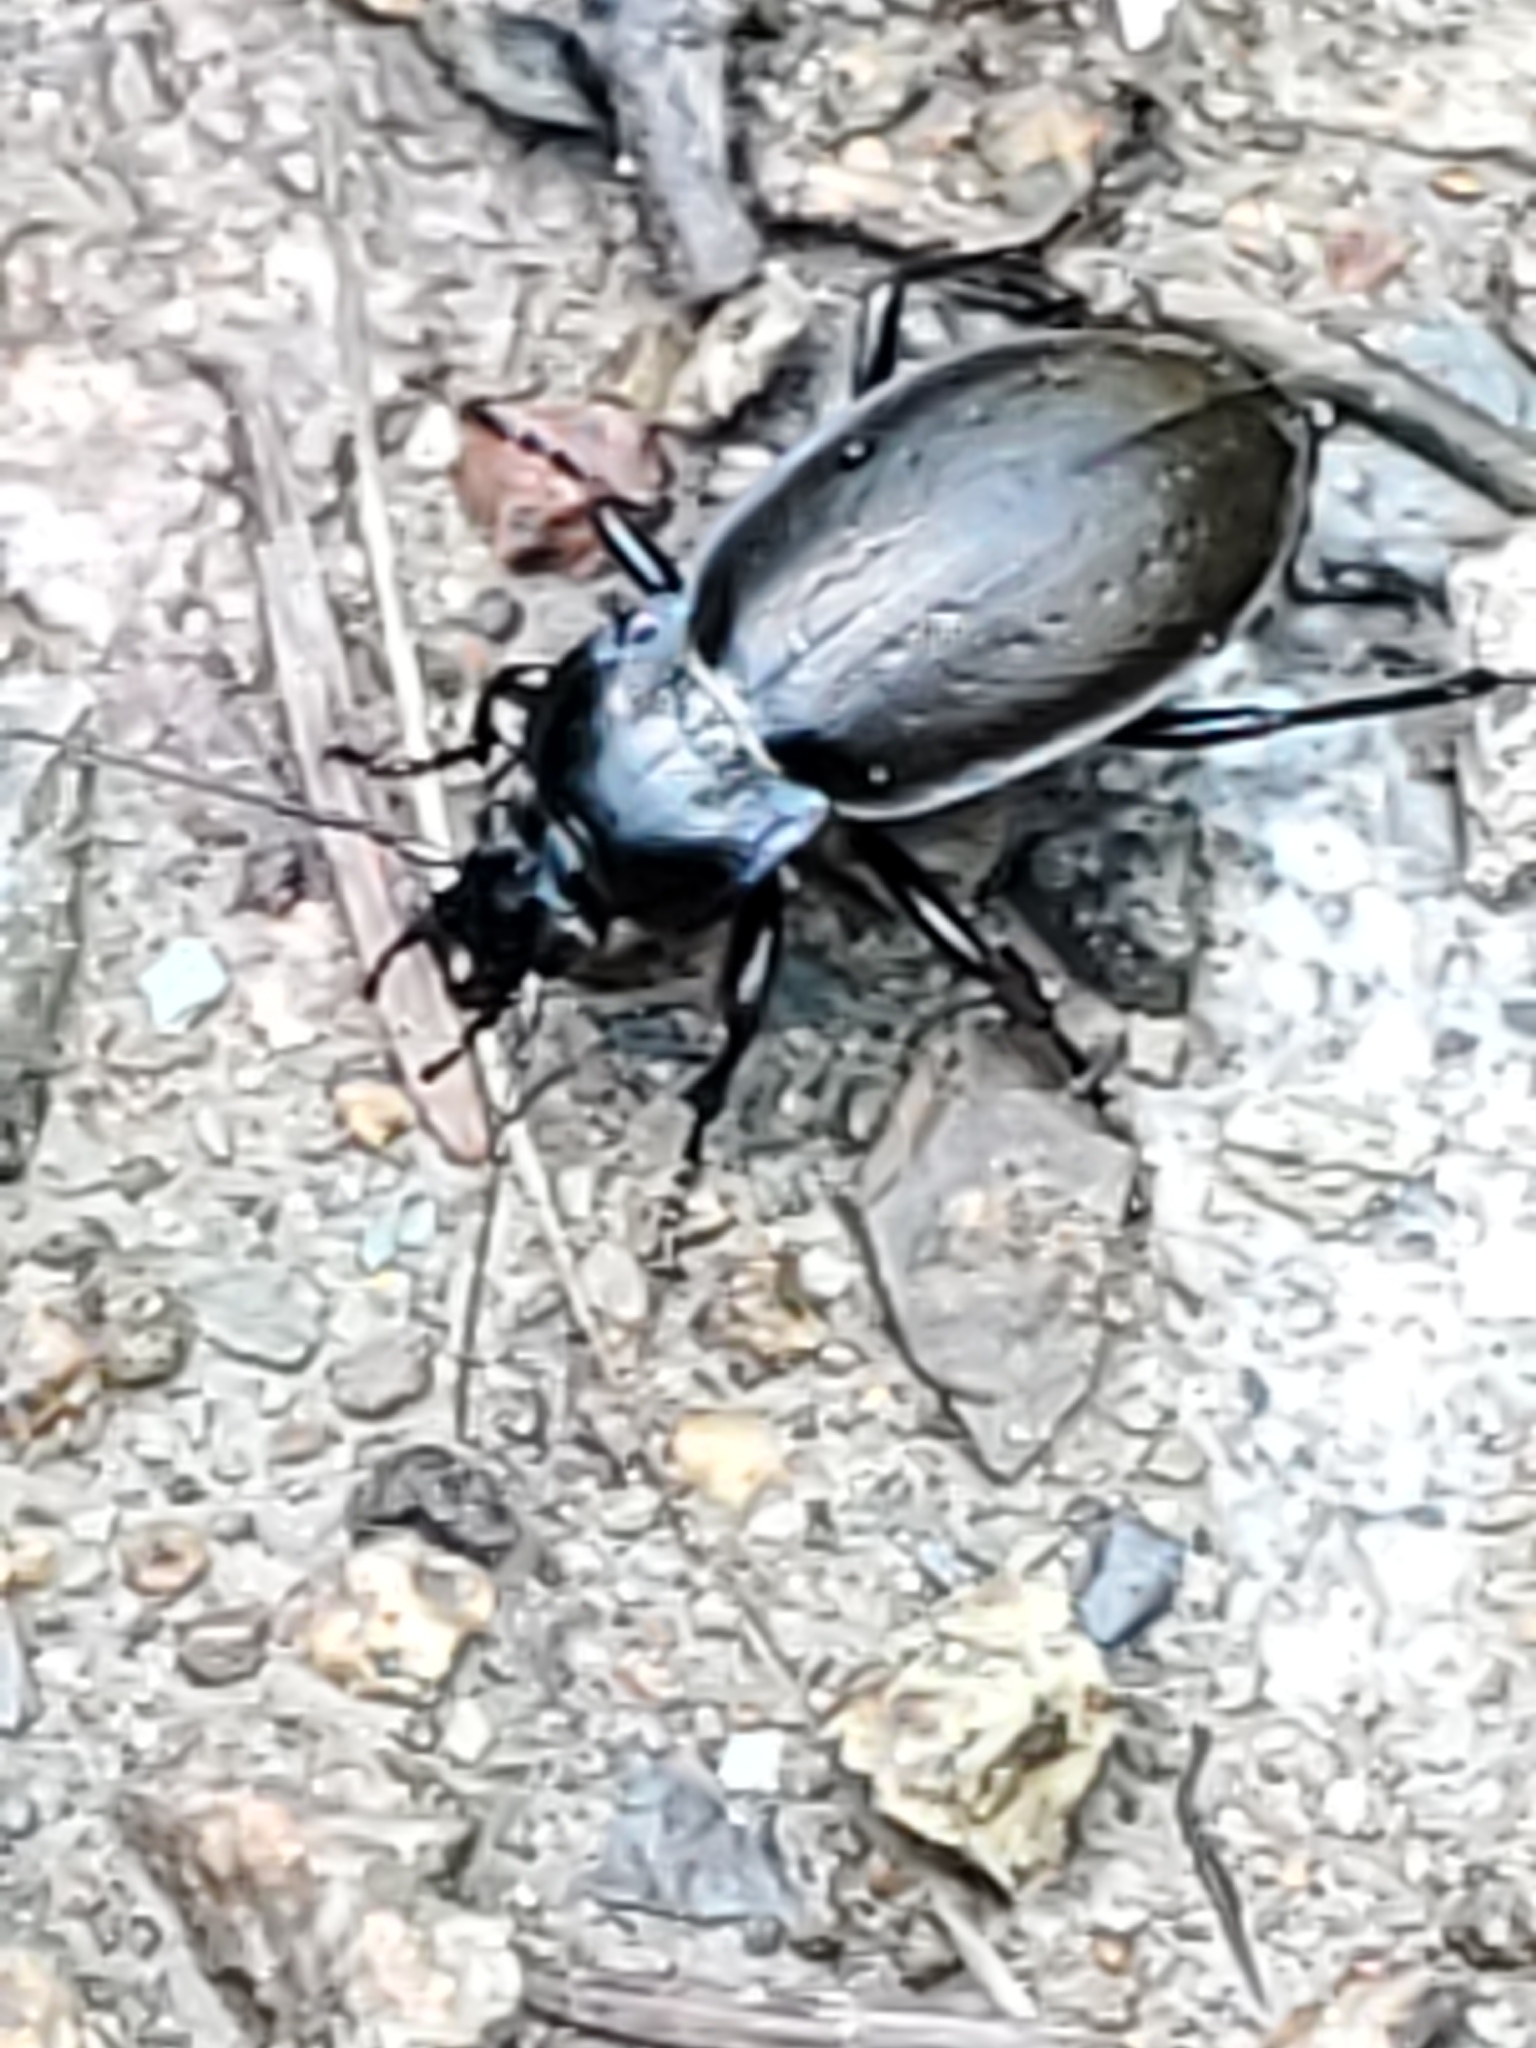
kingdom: Animalia
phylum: Arthropoda
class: Insecta
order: Coleoptera
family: Carabidae
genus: Carabus
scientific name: Carabus nemoralis
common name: European ground beetle
